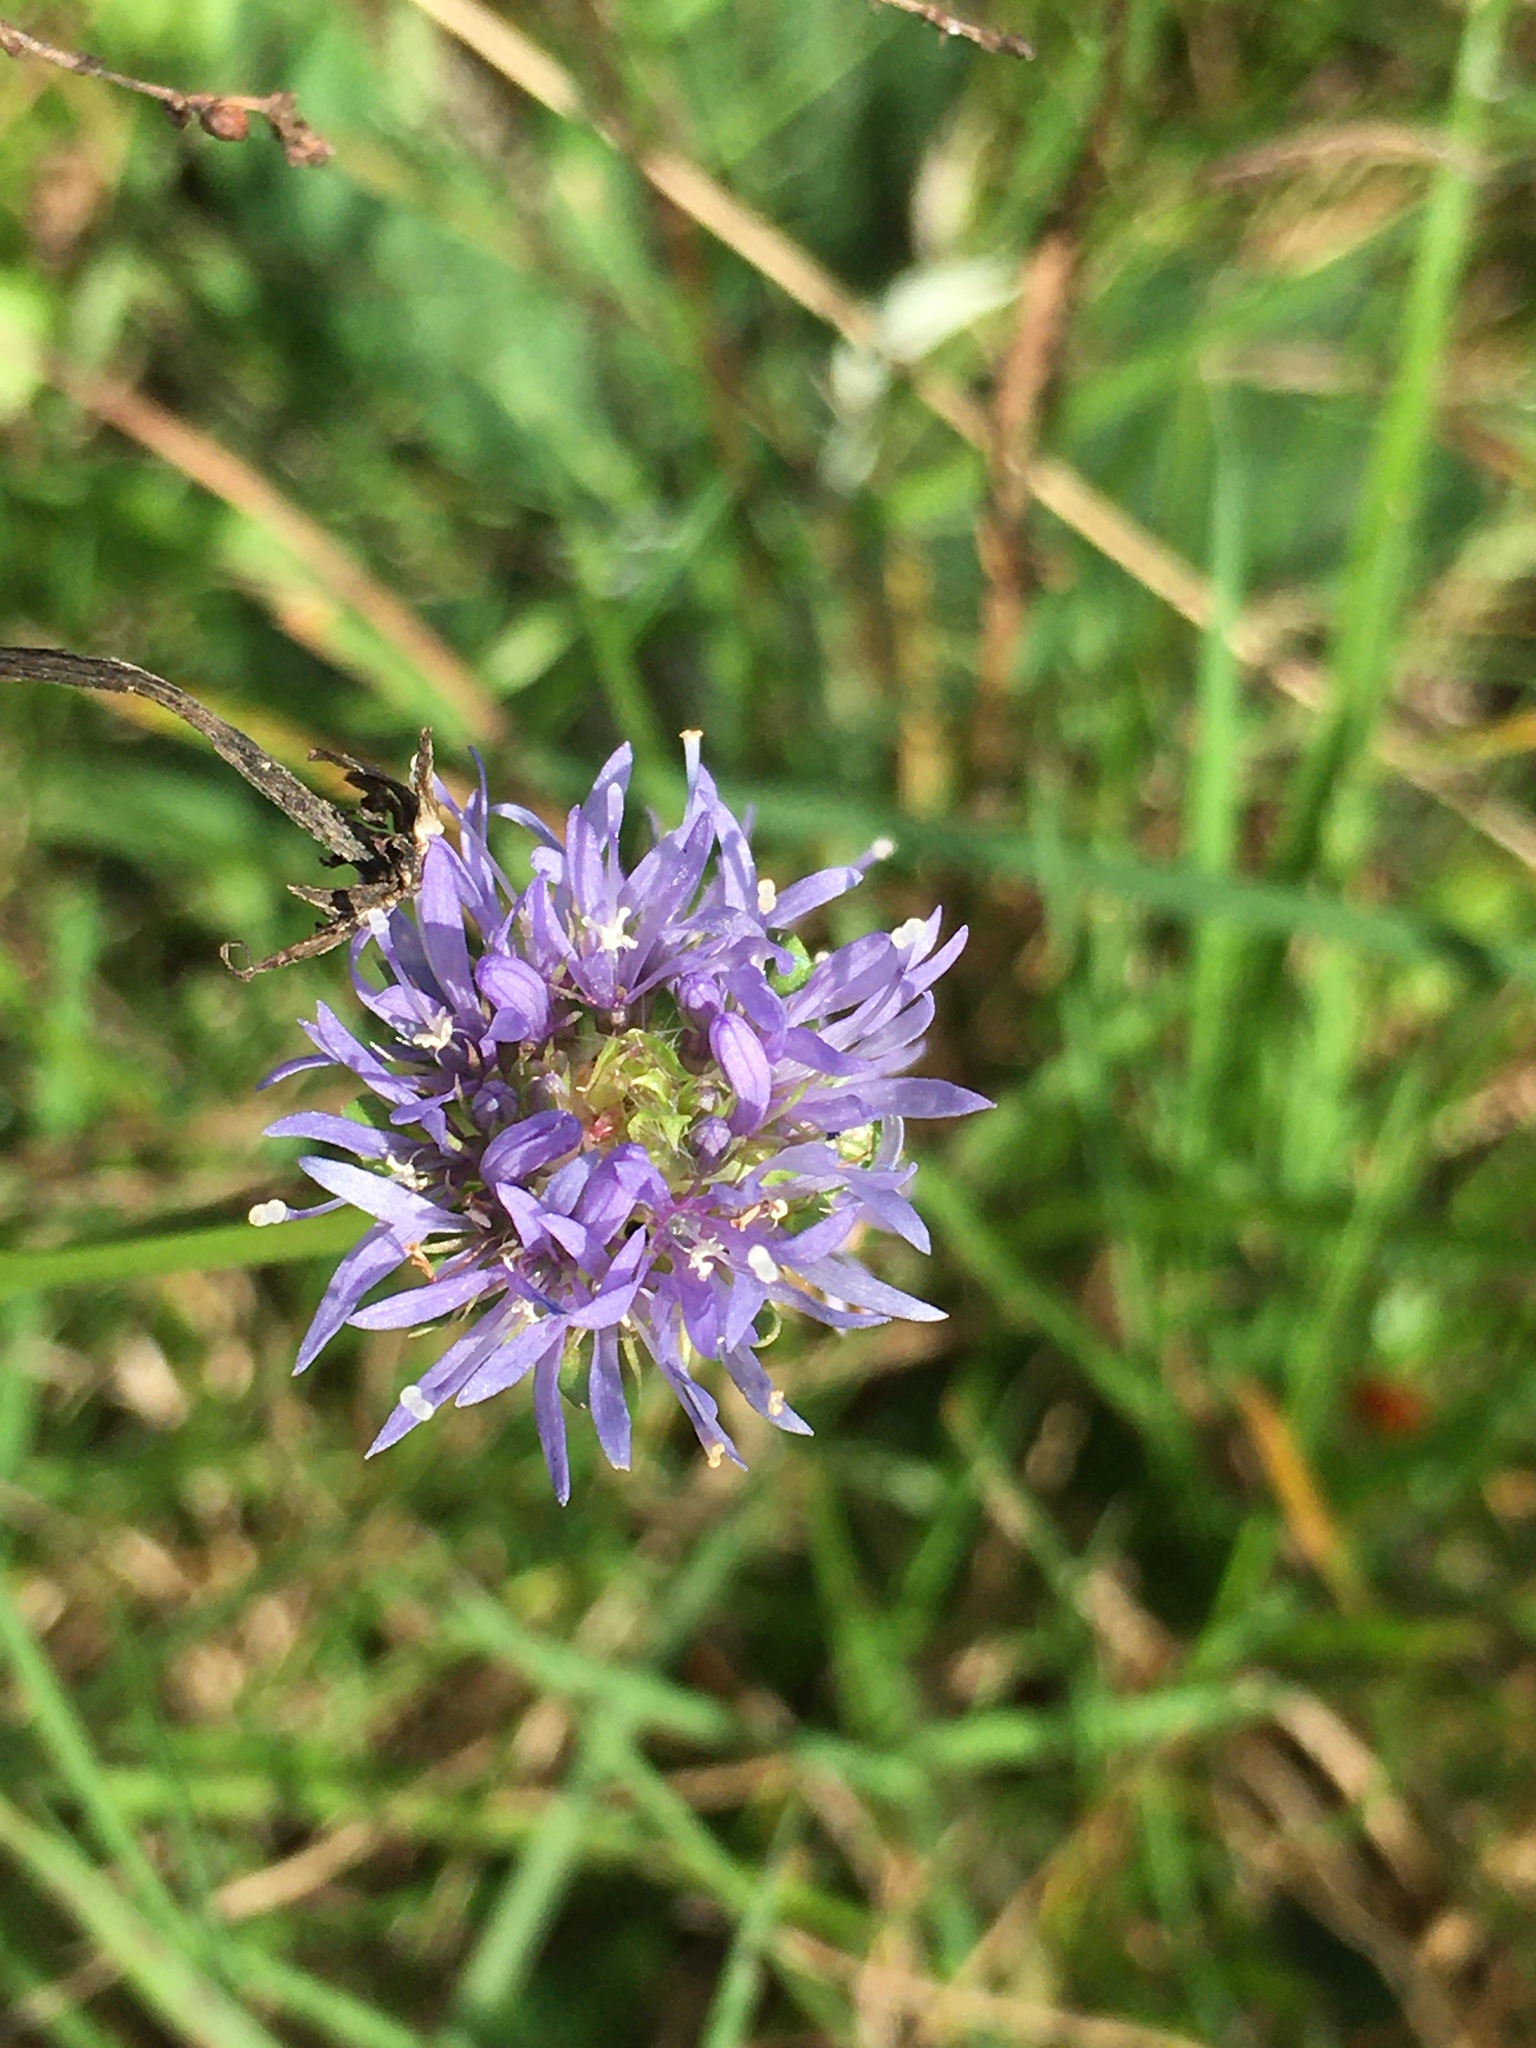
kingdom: Plantae
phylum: Tracheophyta
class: Magnoliopsida
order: Asterales
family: Campanulaceae
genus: Jasione
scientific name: Jasione montana
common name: Sheep's-bit
